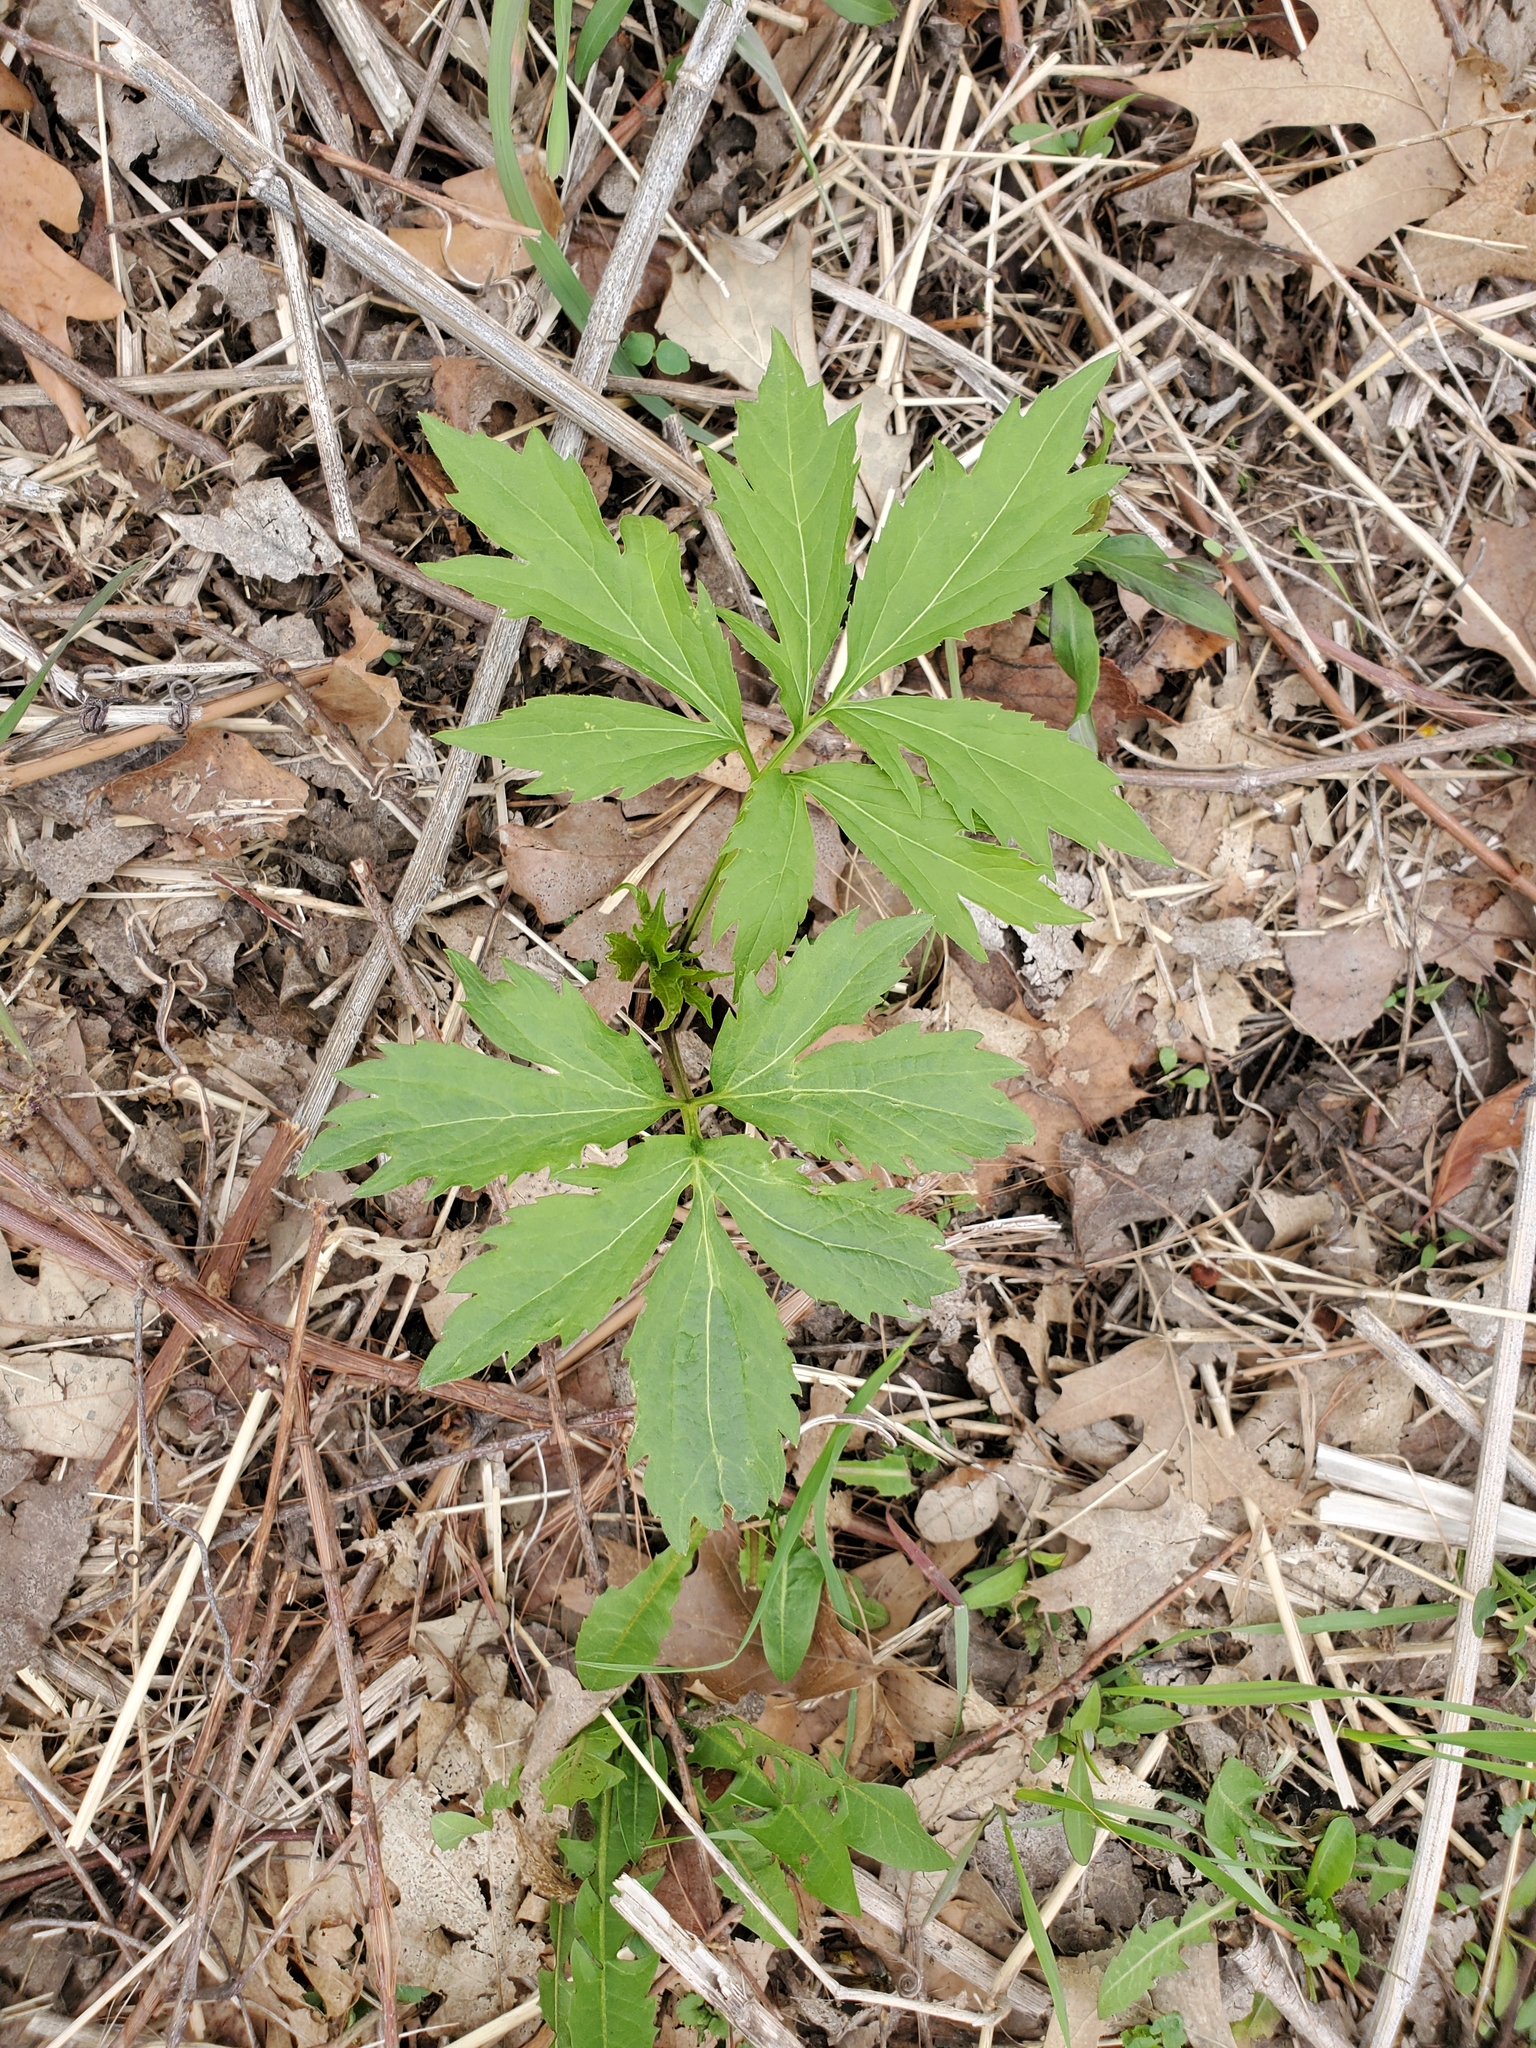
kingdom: Plantae
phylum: Tracheophyta
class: Magnoliopsida
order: Asterales
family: Asteraceae
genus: Rudbeckia
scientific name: Rudbeckia laciniata
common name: Coneflower
